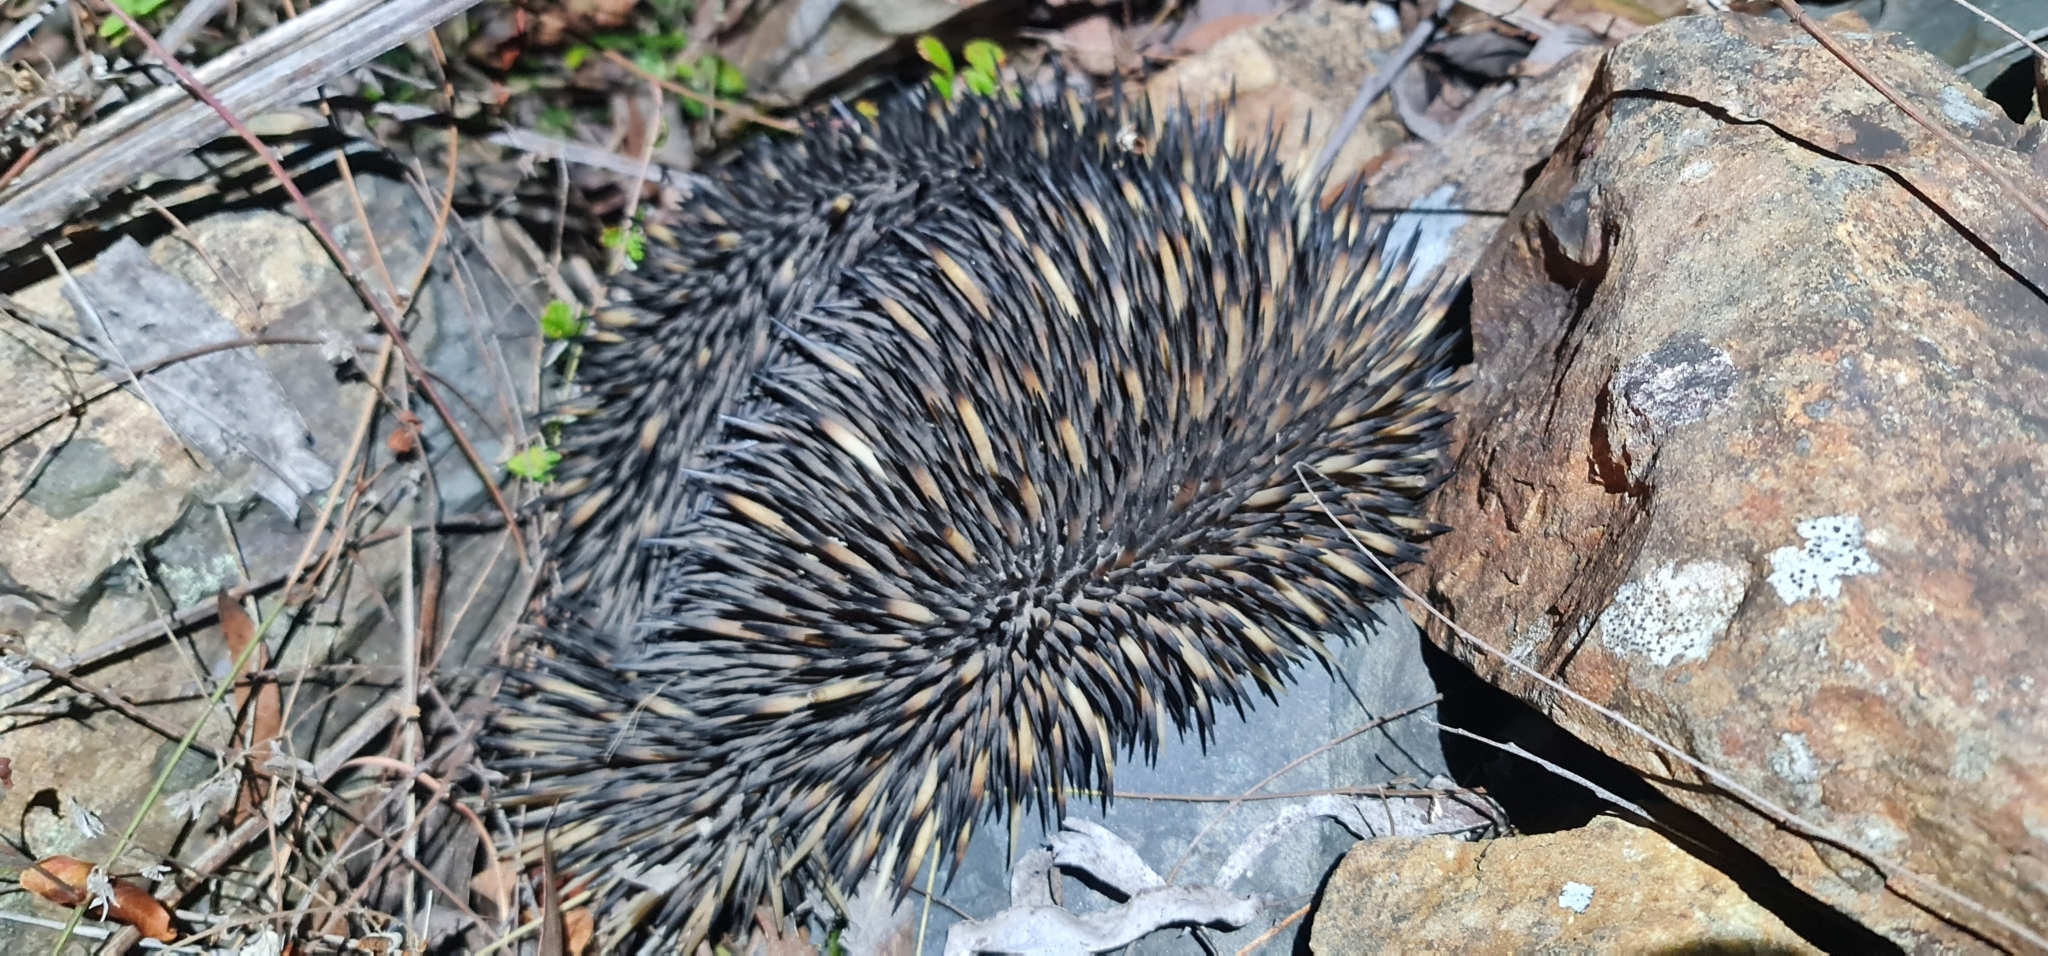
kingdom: Animalia
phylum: Chordata
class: Mammalia
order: Monotremata
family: Tachyglossidae
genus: Tachyglossus
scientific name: Tachyglossus aculeatus
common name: Short-beaked echidna
